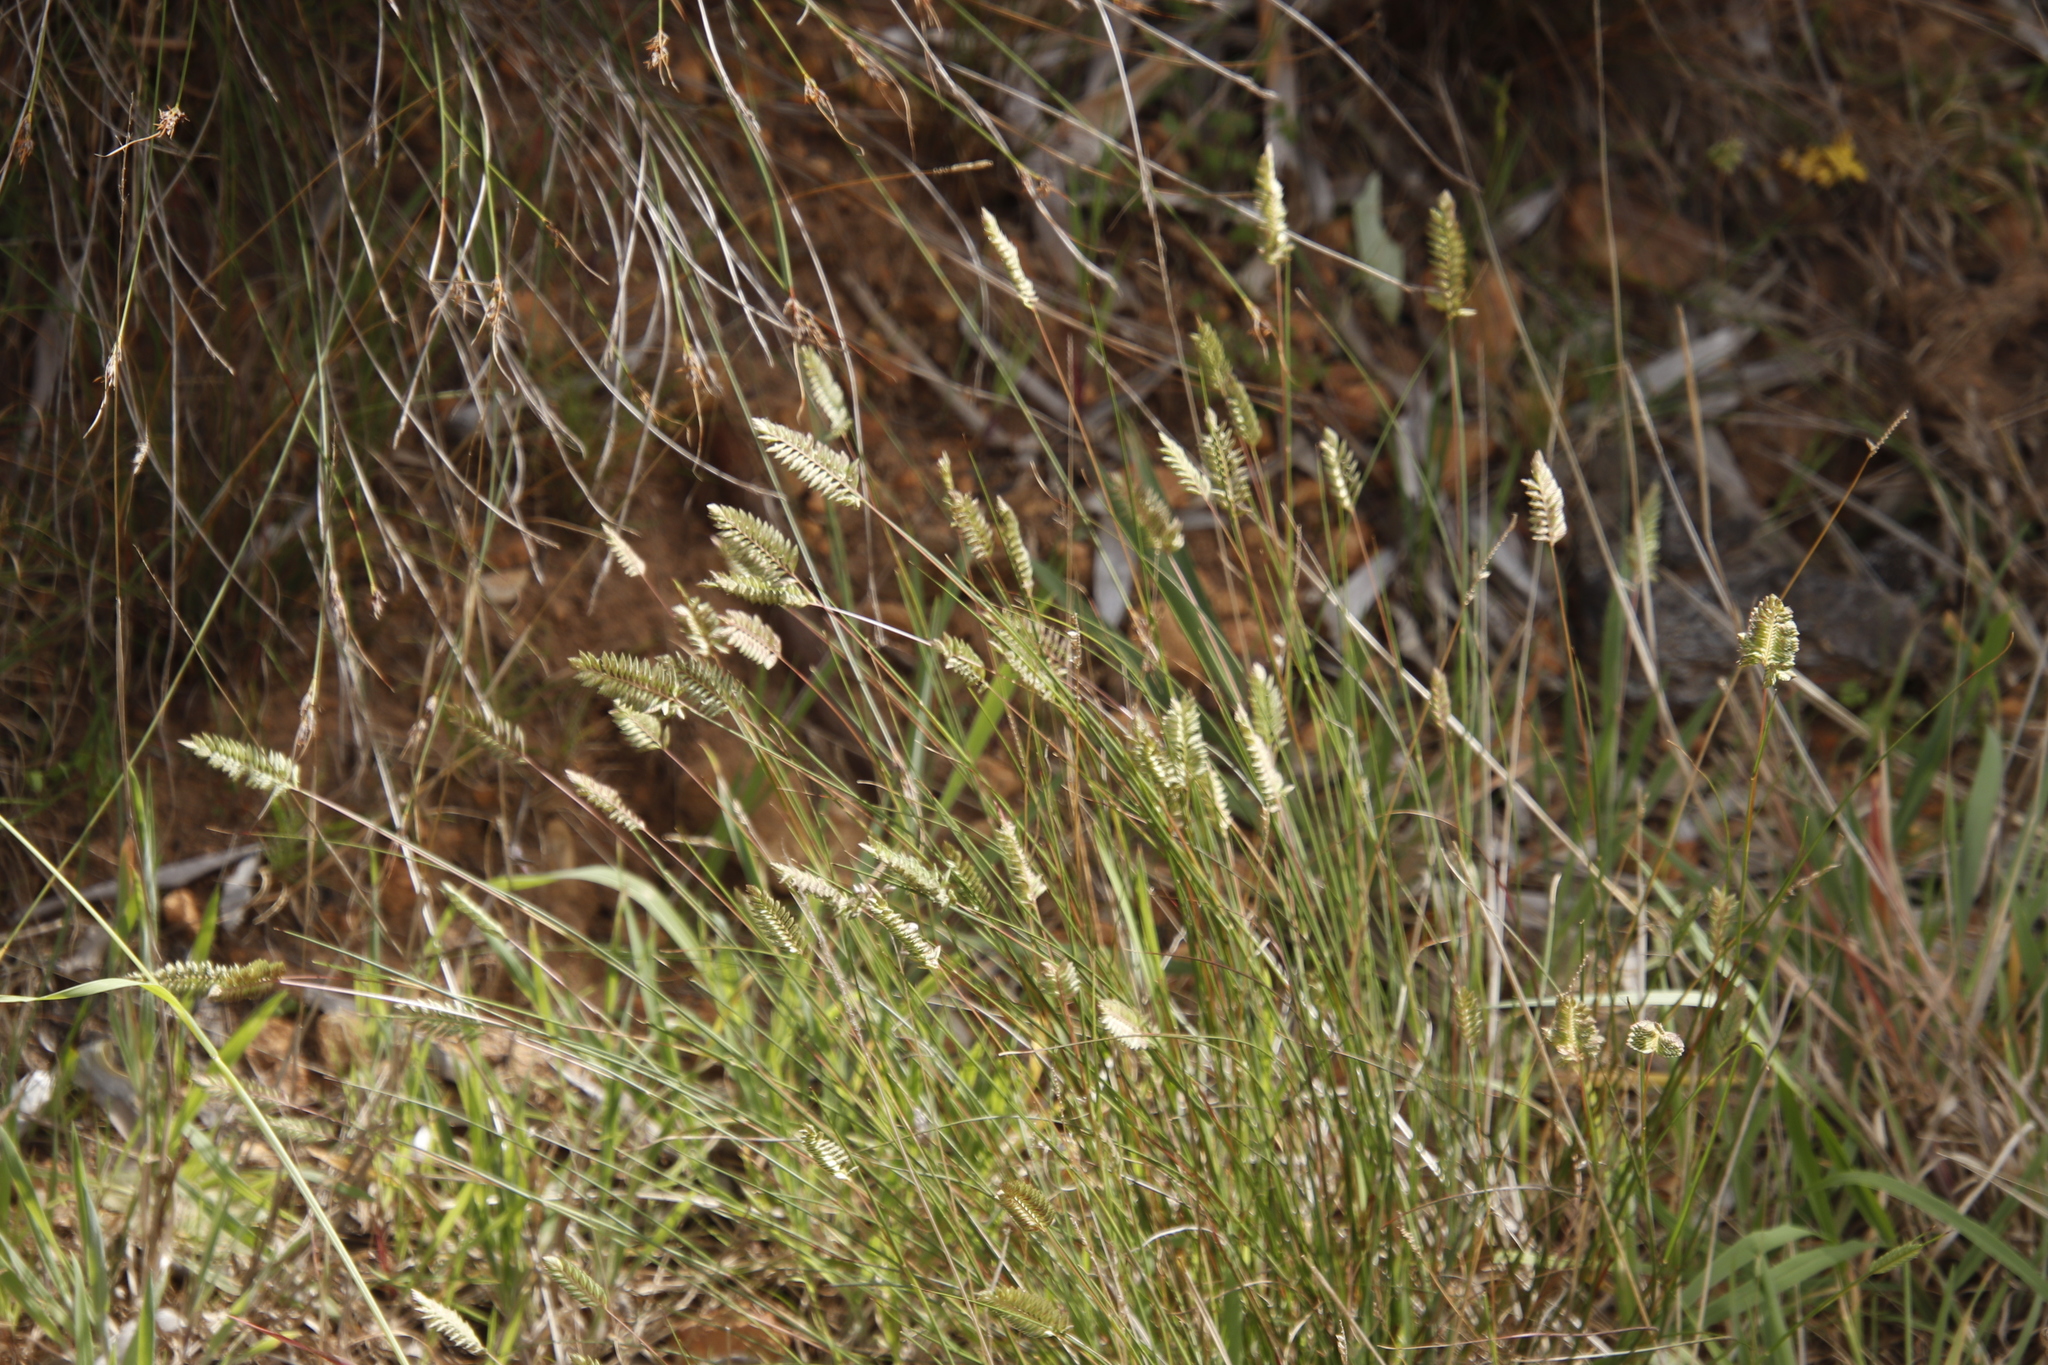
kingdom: Plantae
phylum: Tracheophyta
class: Liliopsida
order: Poales
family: Poaceae
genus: Tribolium
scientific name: Tribolium uniolae
